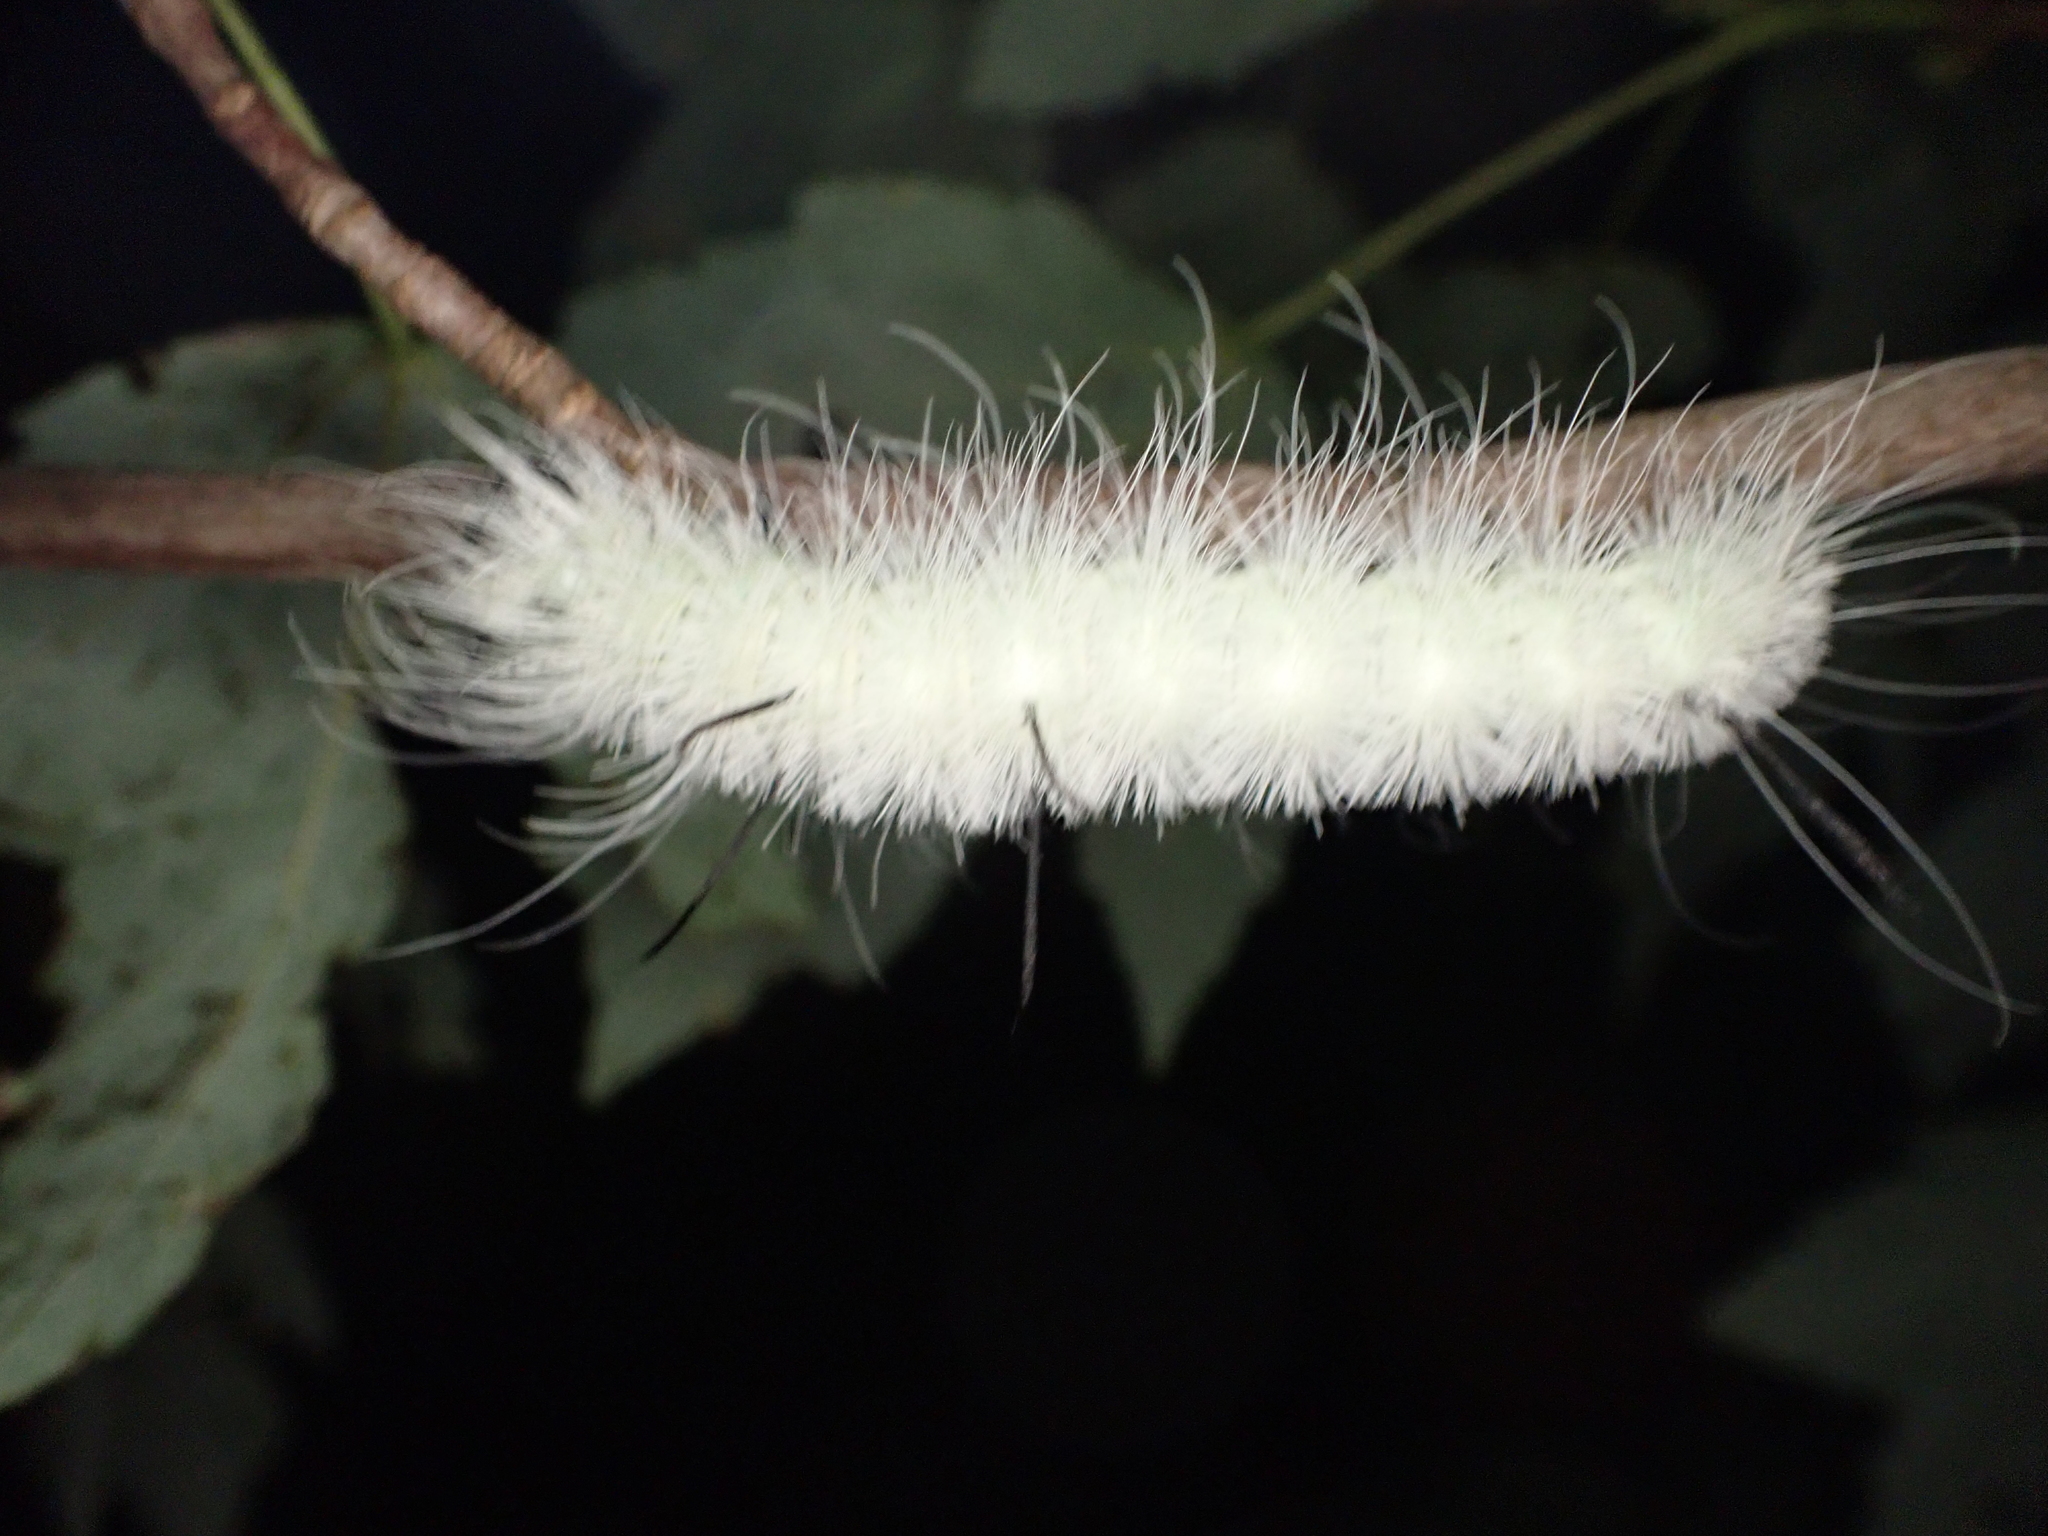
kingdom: Animalia
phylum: Arthropoda
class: Insecta
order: Lepidoptera
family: Noctuidae
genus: Acronicta
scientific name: Acronicta americana
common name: American dagger
